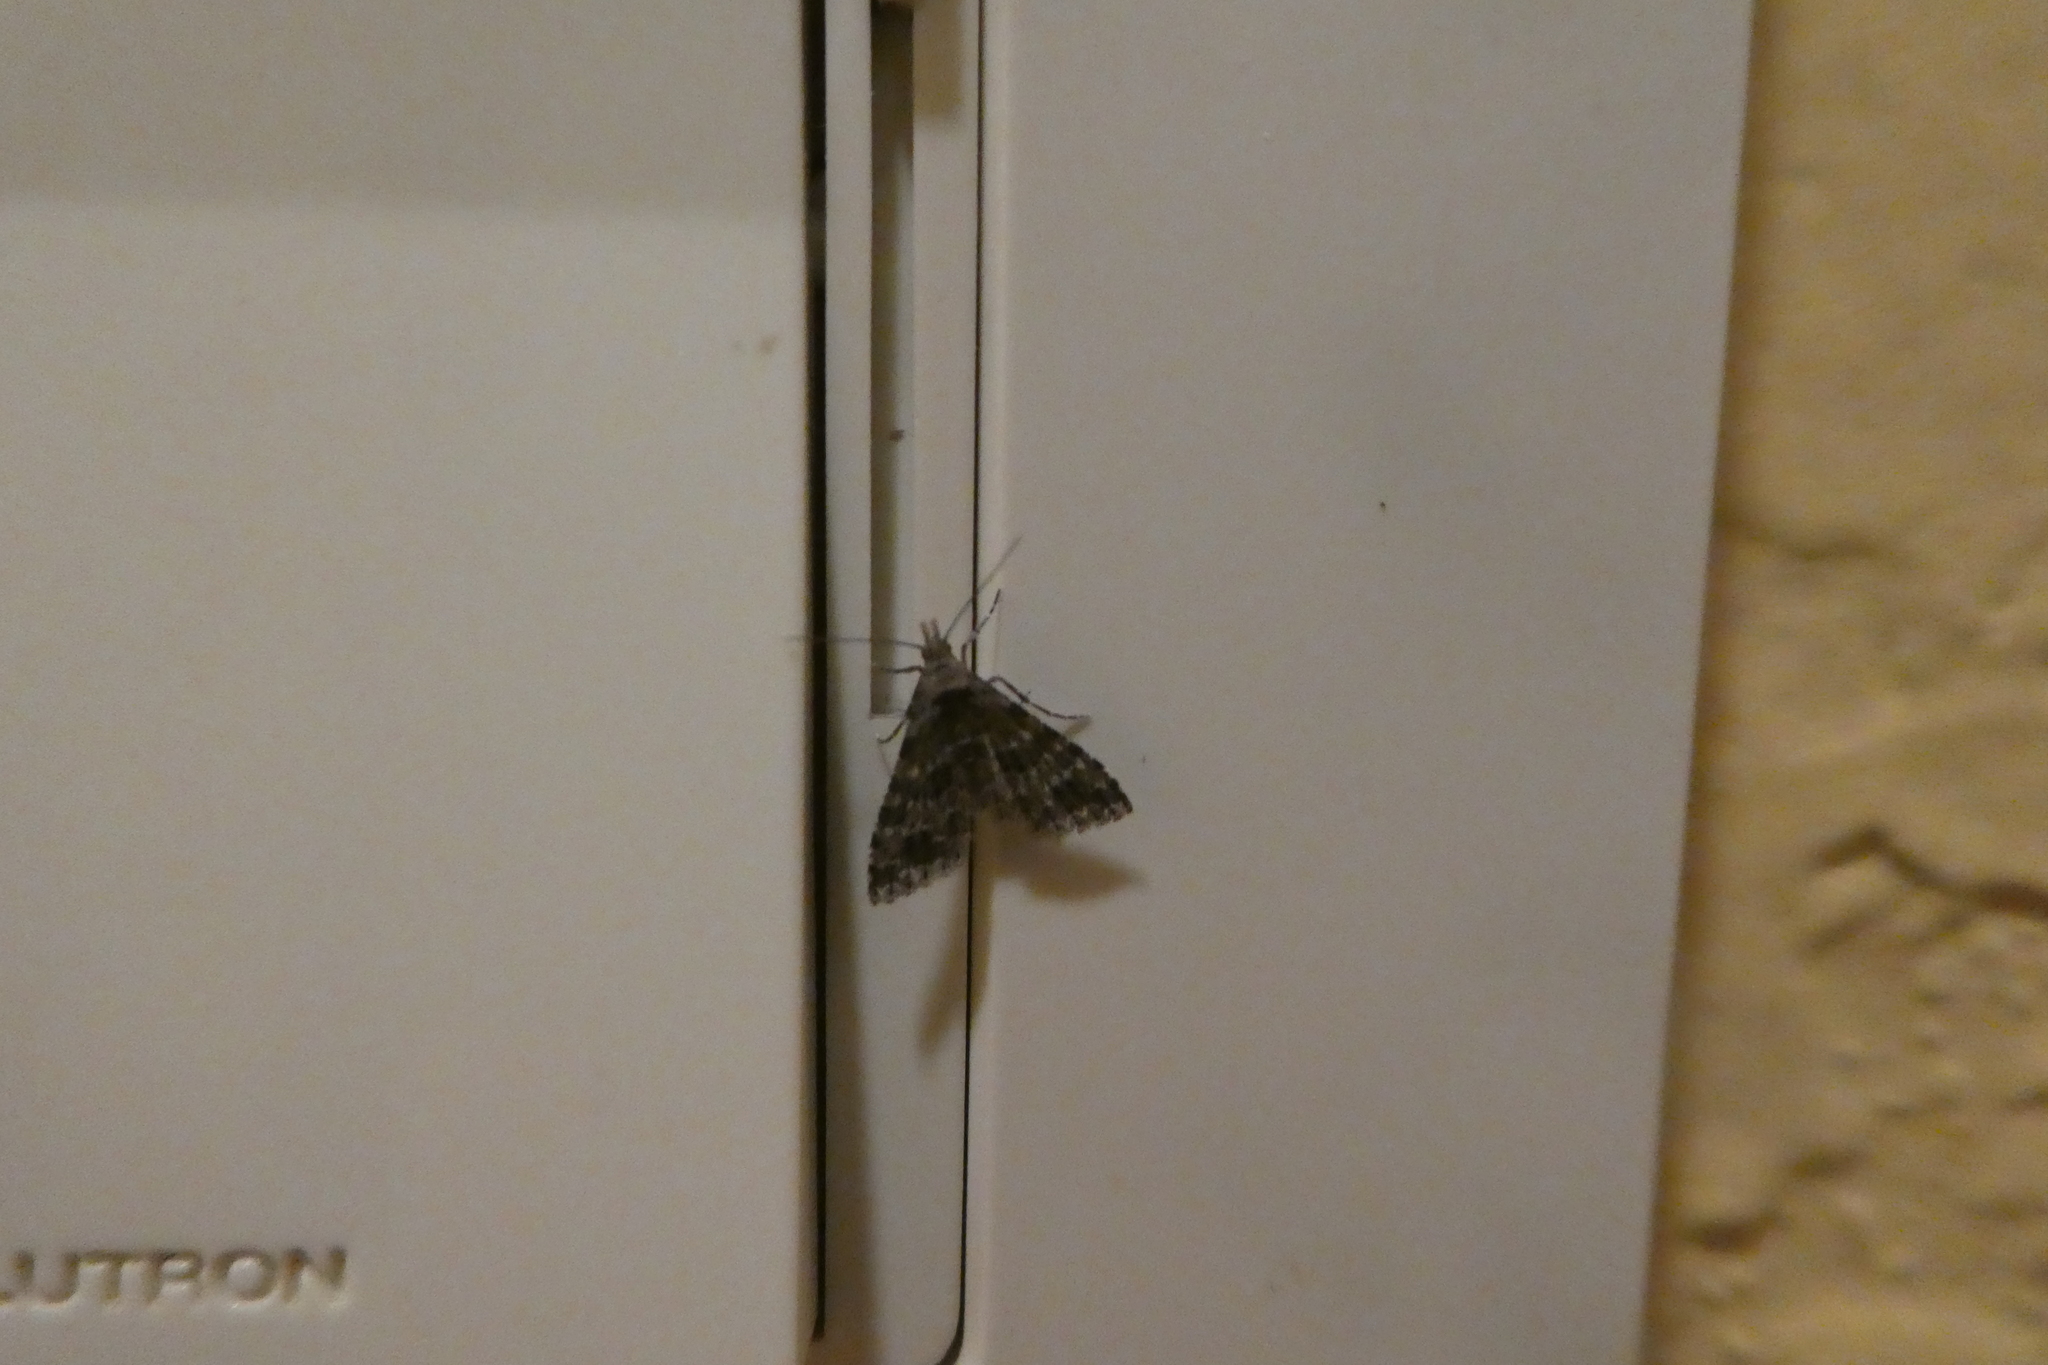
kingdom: Animalia
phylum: Arthropoda
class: Insecta
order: Lepidoptera
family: Alucitidae
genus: Alucita
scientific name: Alucita montana
